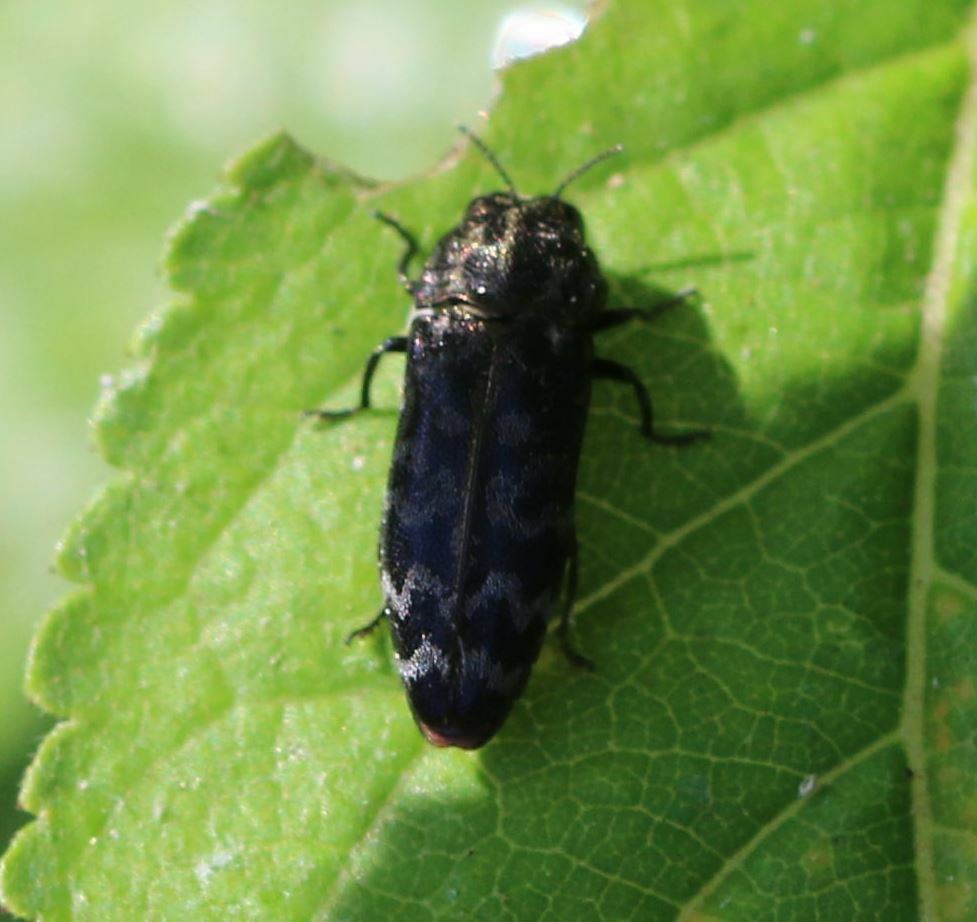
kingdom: Animalia
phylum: Arthropoda
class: Insecta
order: Coleoptera
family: Buprestidae
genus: Coraebus
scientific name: Coraebus rubi
